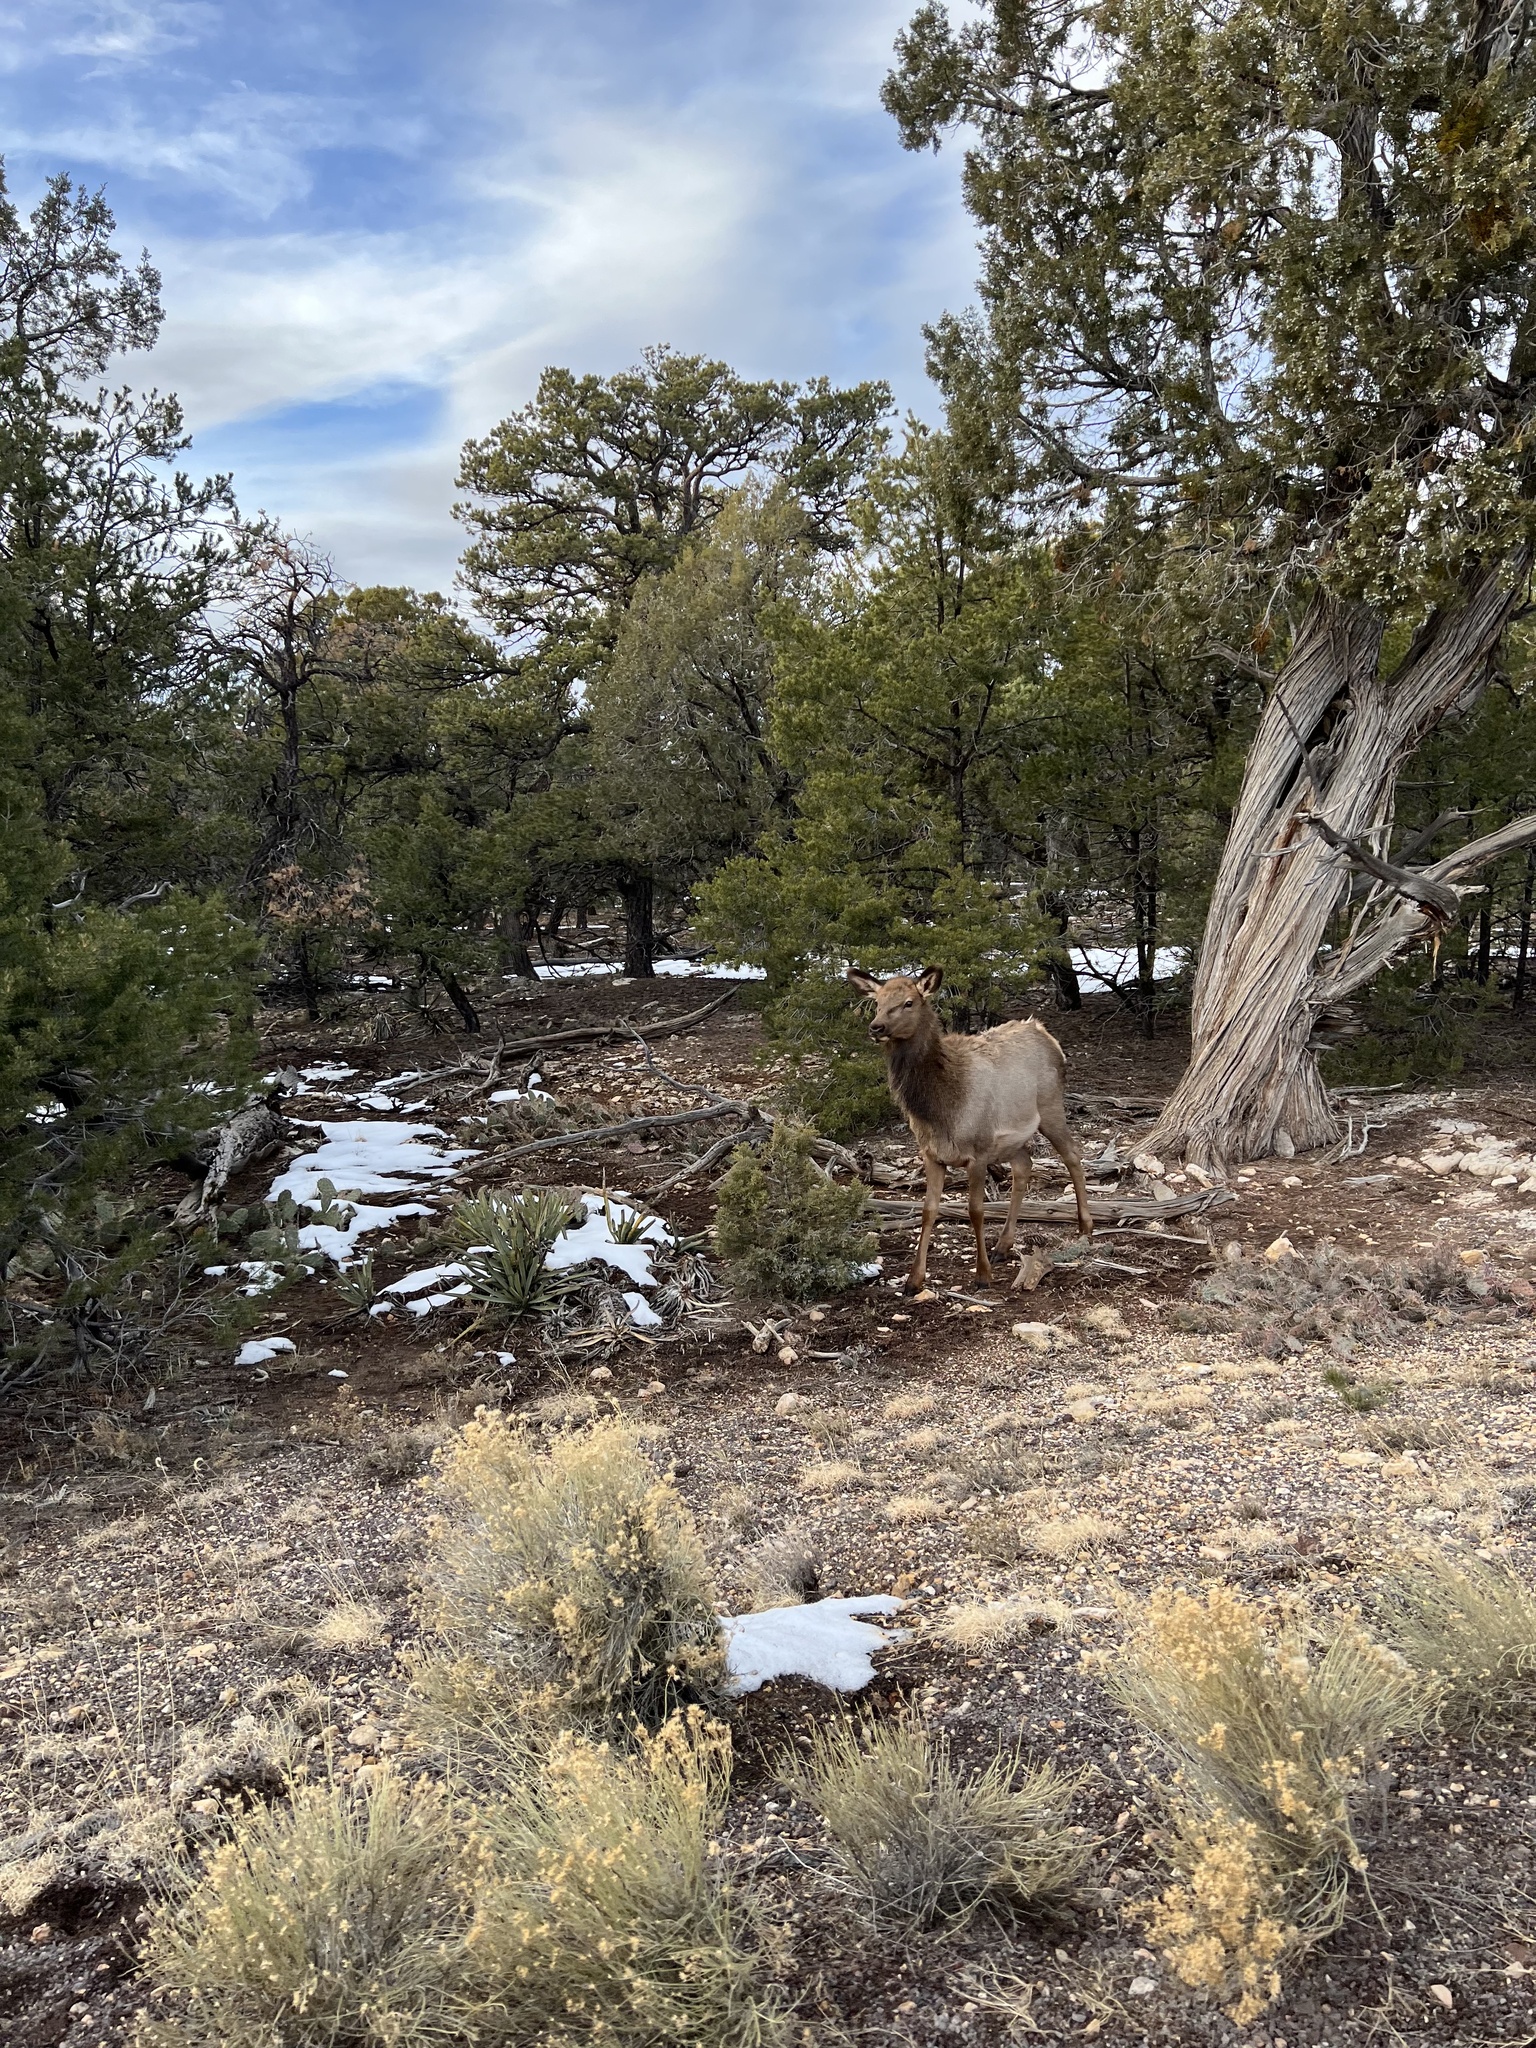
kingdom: Animalia
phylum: Chordata
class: Mammalia
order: Artiodactyla
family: Cervidae
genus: Cervus
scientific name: Cervus elaphus
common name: Red deer
